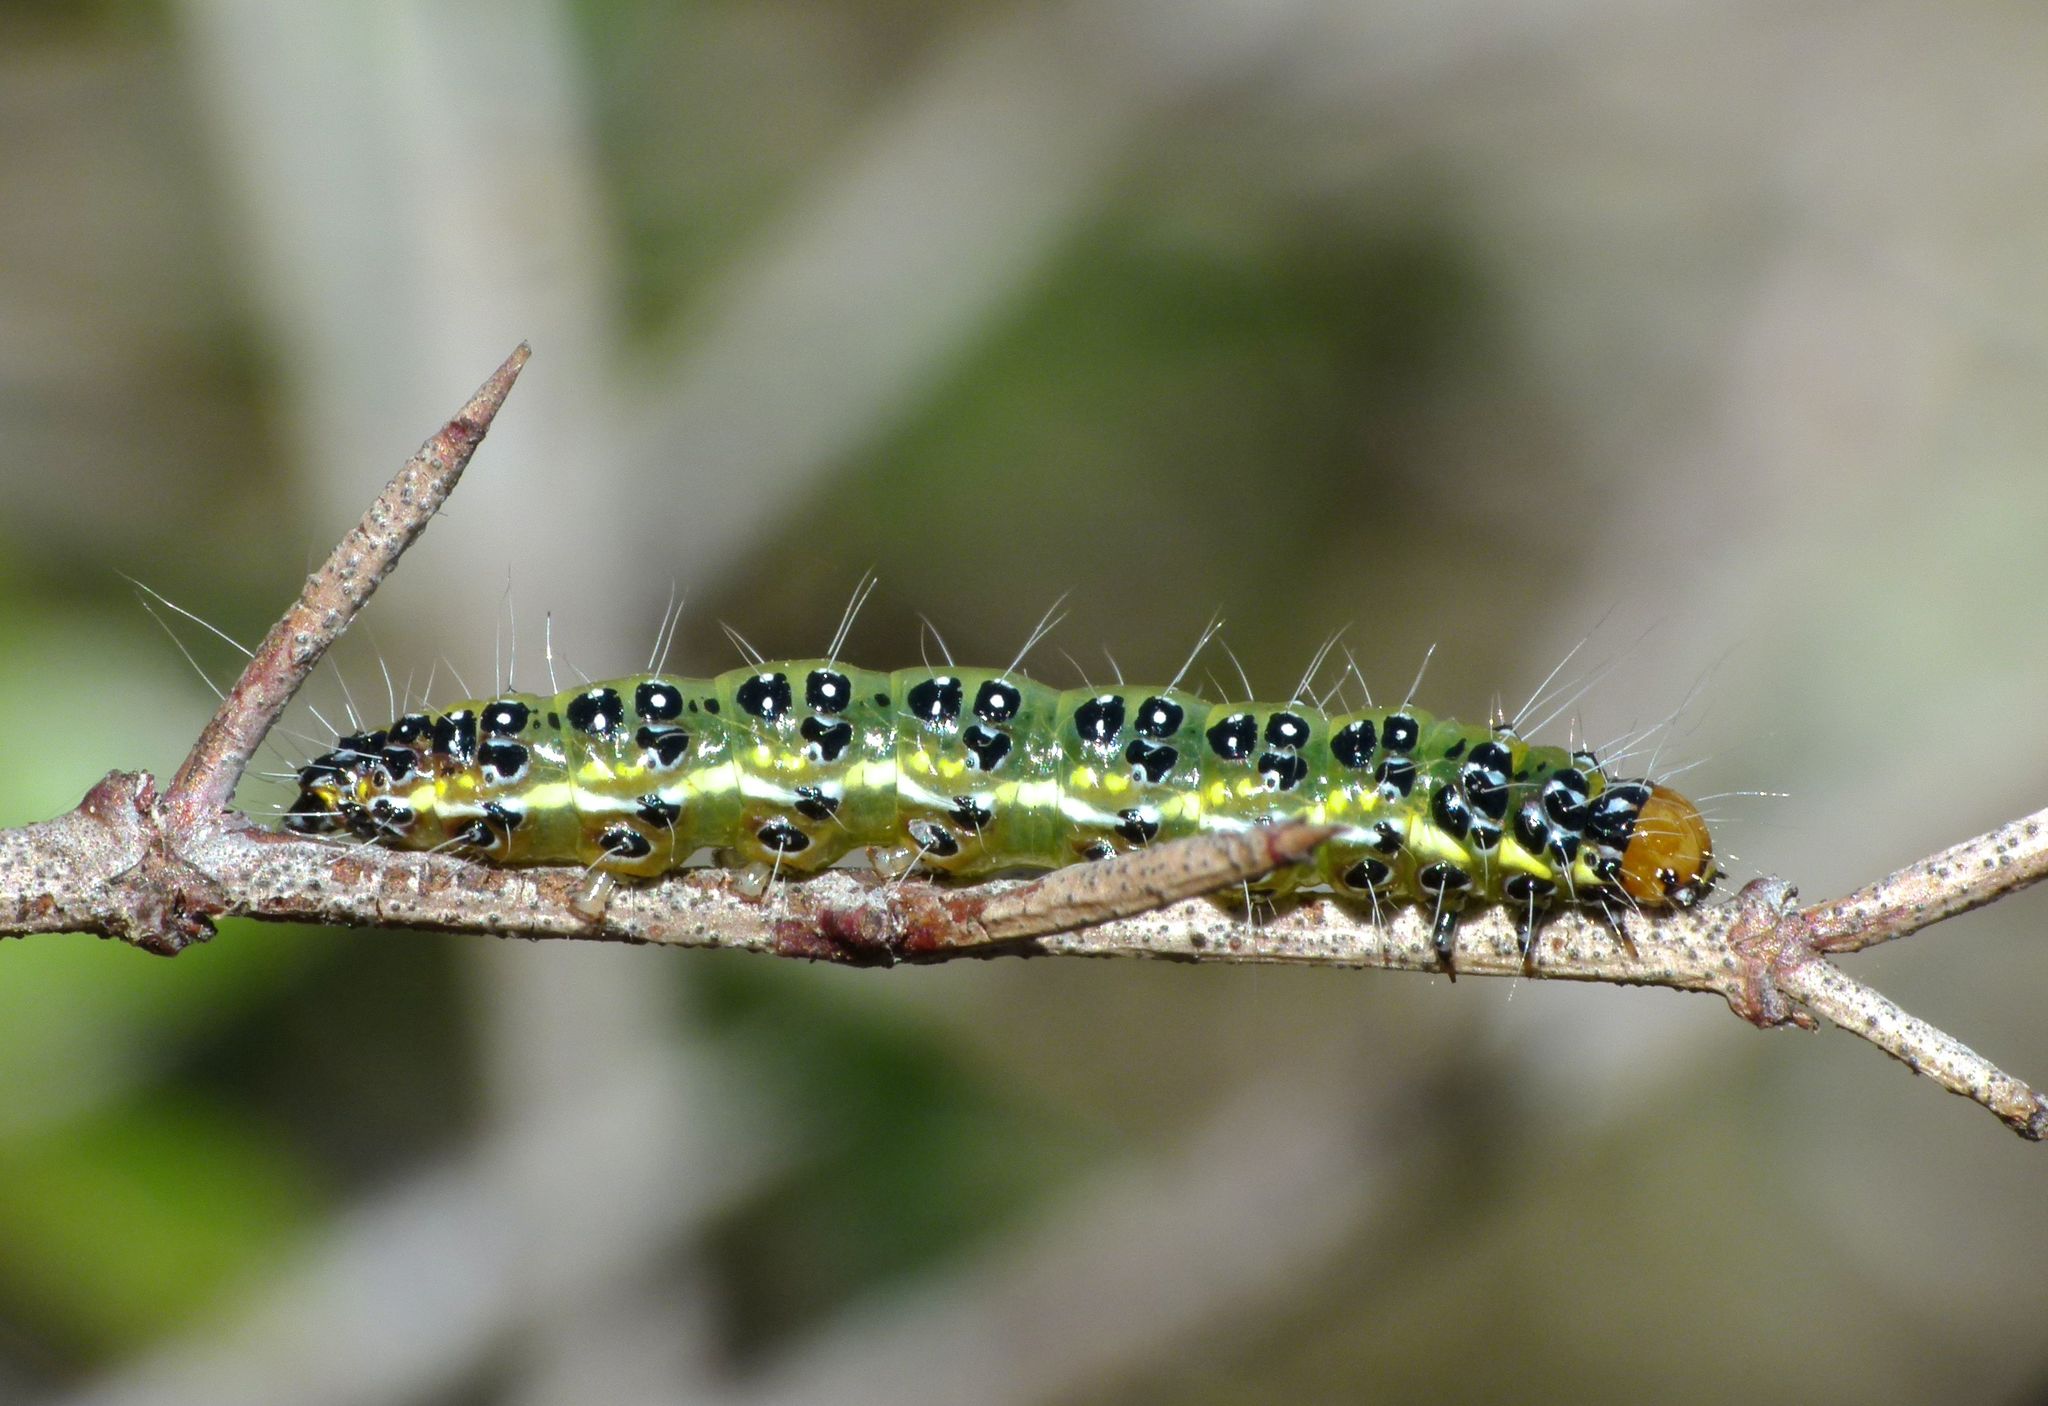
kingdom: Animalia
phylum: Arthropoda
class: Insecta
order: Lepidoptera
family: Crambidae
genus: Uresiphita
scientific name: Uresiphita
